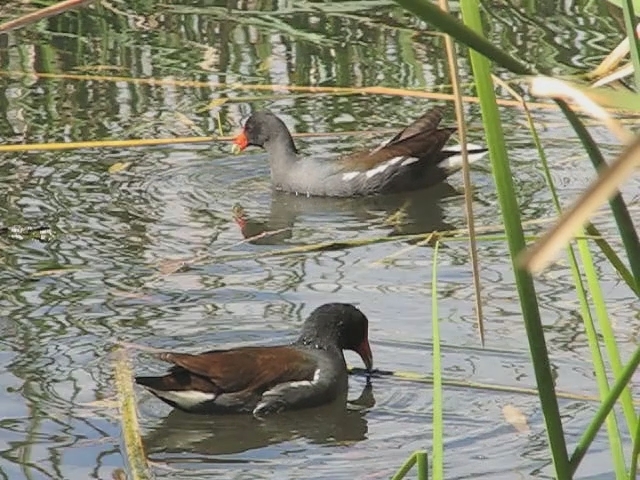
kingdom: Animalia
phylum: Chordata
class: Aves
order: Gruiformes
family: Rallidae
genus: Gallinula
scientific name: Gallinula chloropus
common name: Common moorhen
